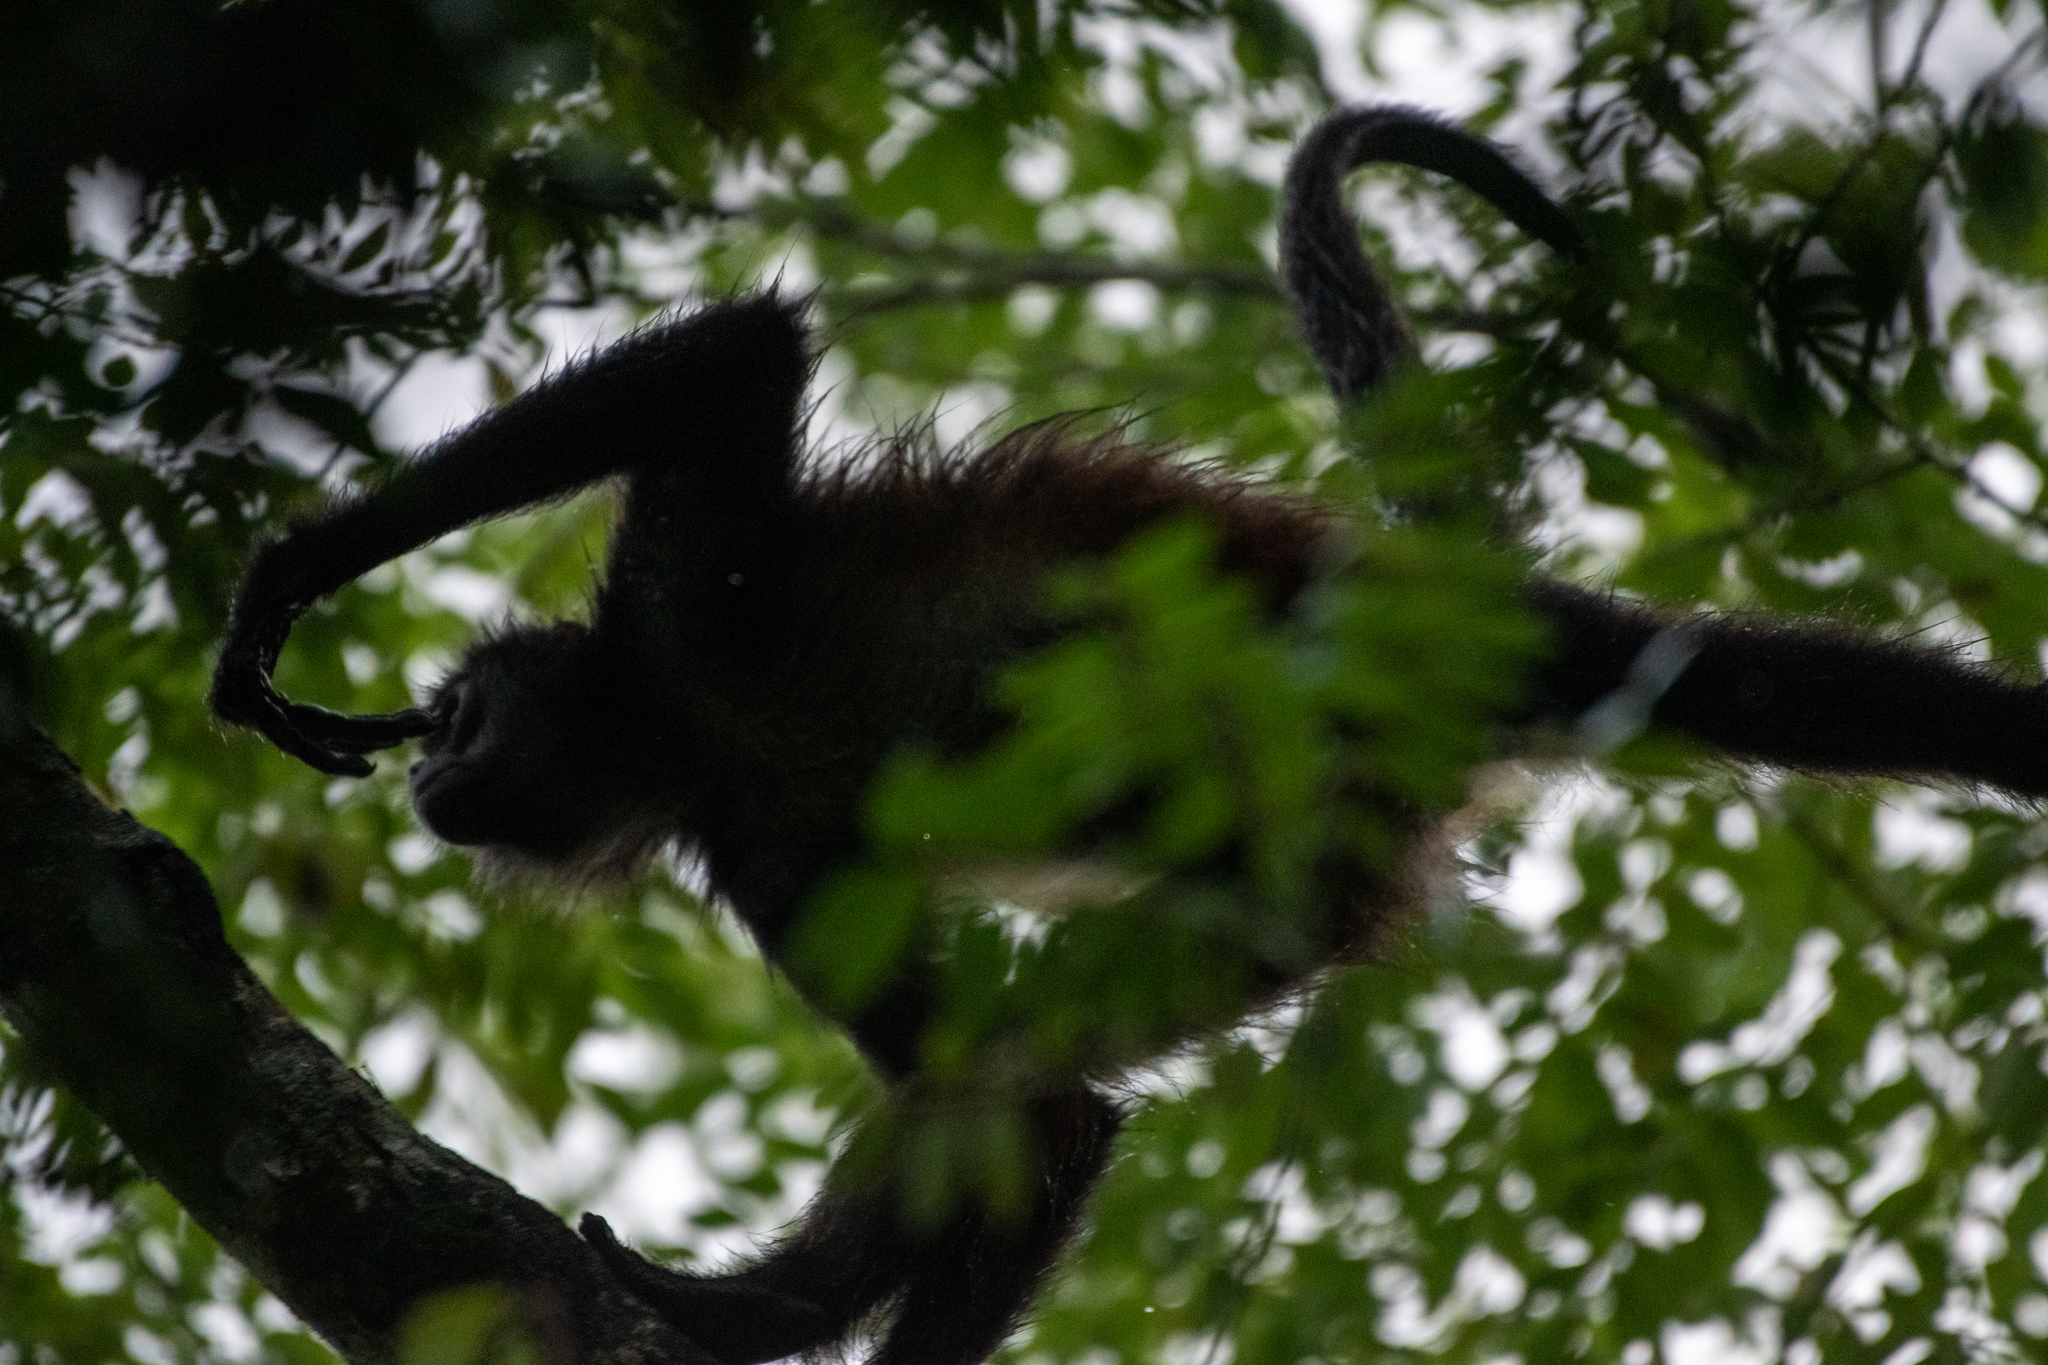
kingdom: Animalia
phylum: Chordata
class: Mammalia
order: Primates
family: Atelidae
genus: Ateles
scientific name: Ateles geoffroyi
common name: Black-handed spider monkey
